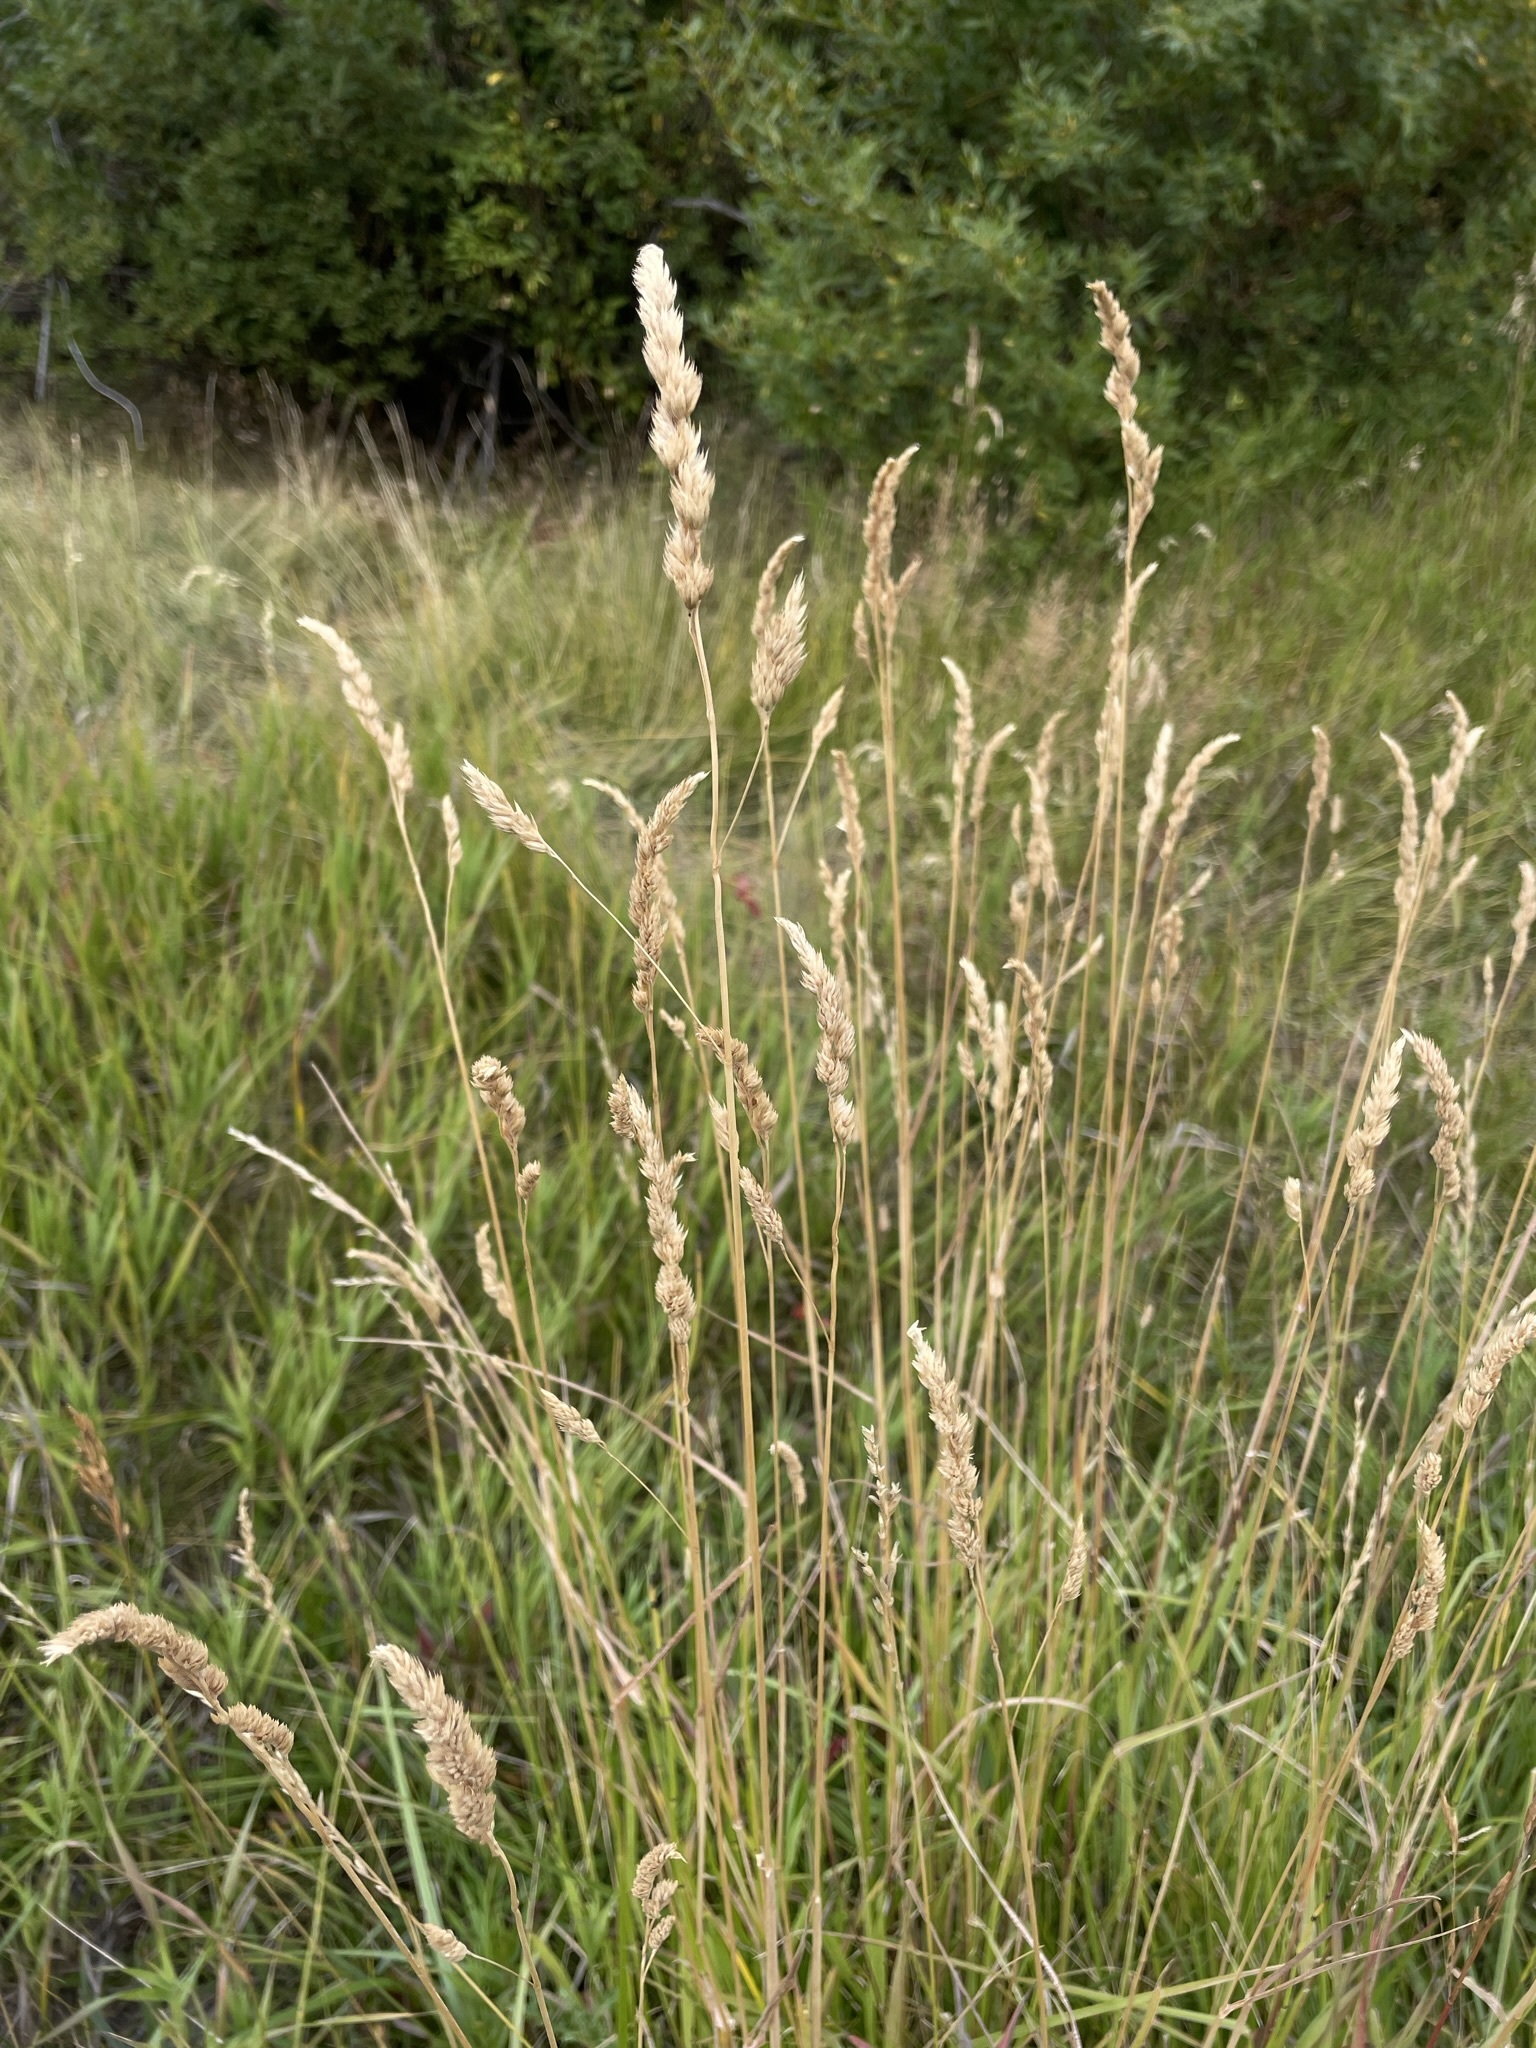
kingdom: Plantae
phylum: Tracheophyta
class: Liliopsida
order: Poales
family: Poaceae
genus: Dactylis
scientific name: Dactylis glomerata
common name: Orchardgrass
